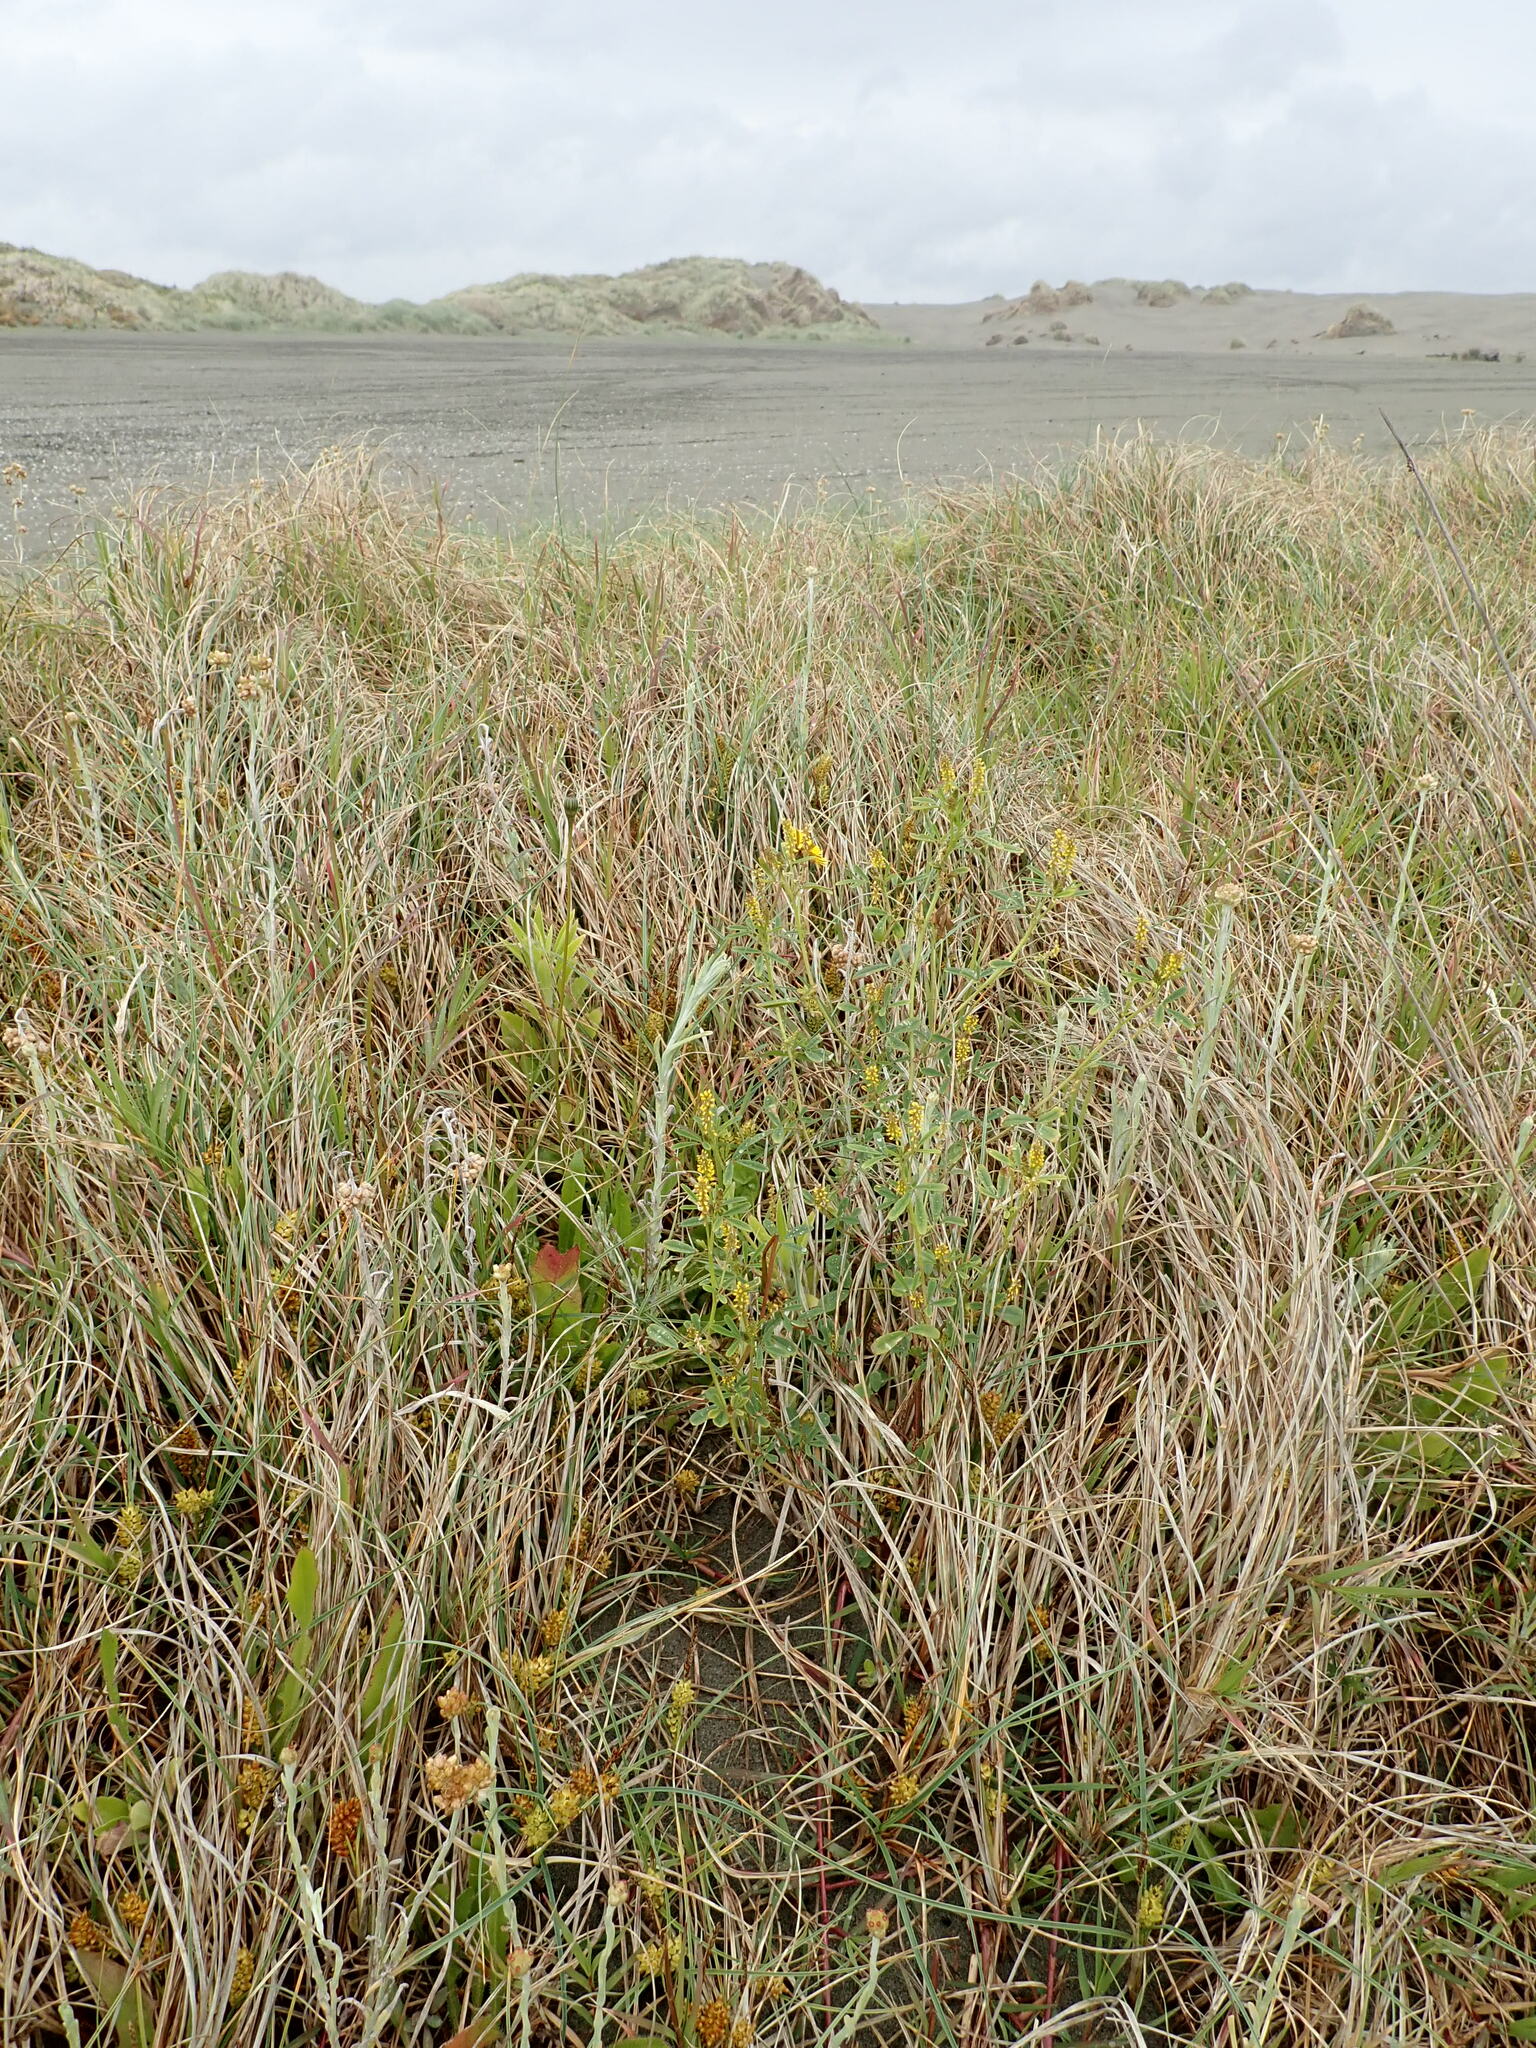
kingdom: Plantae
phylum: Tracheophyta
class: Magnoliopsida
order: Fabales
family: Fabaceae
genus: Melilotus
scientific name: Melilotus indicus
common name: Small melilot
